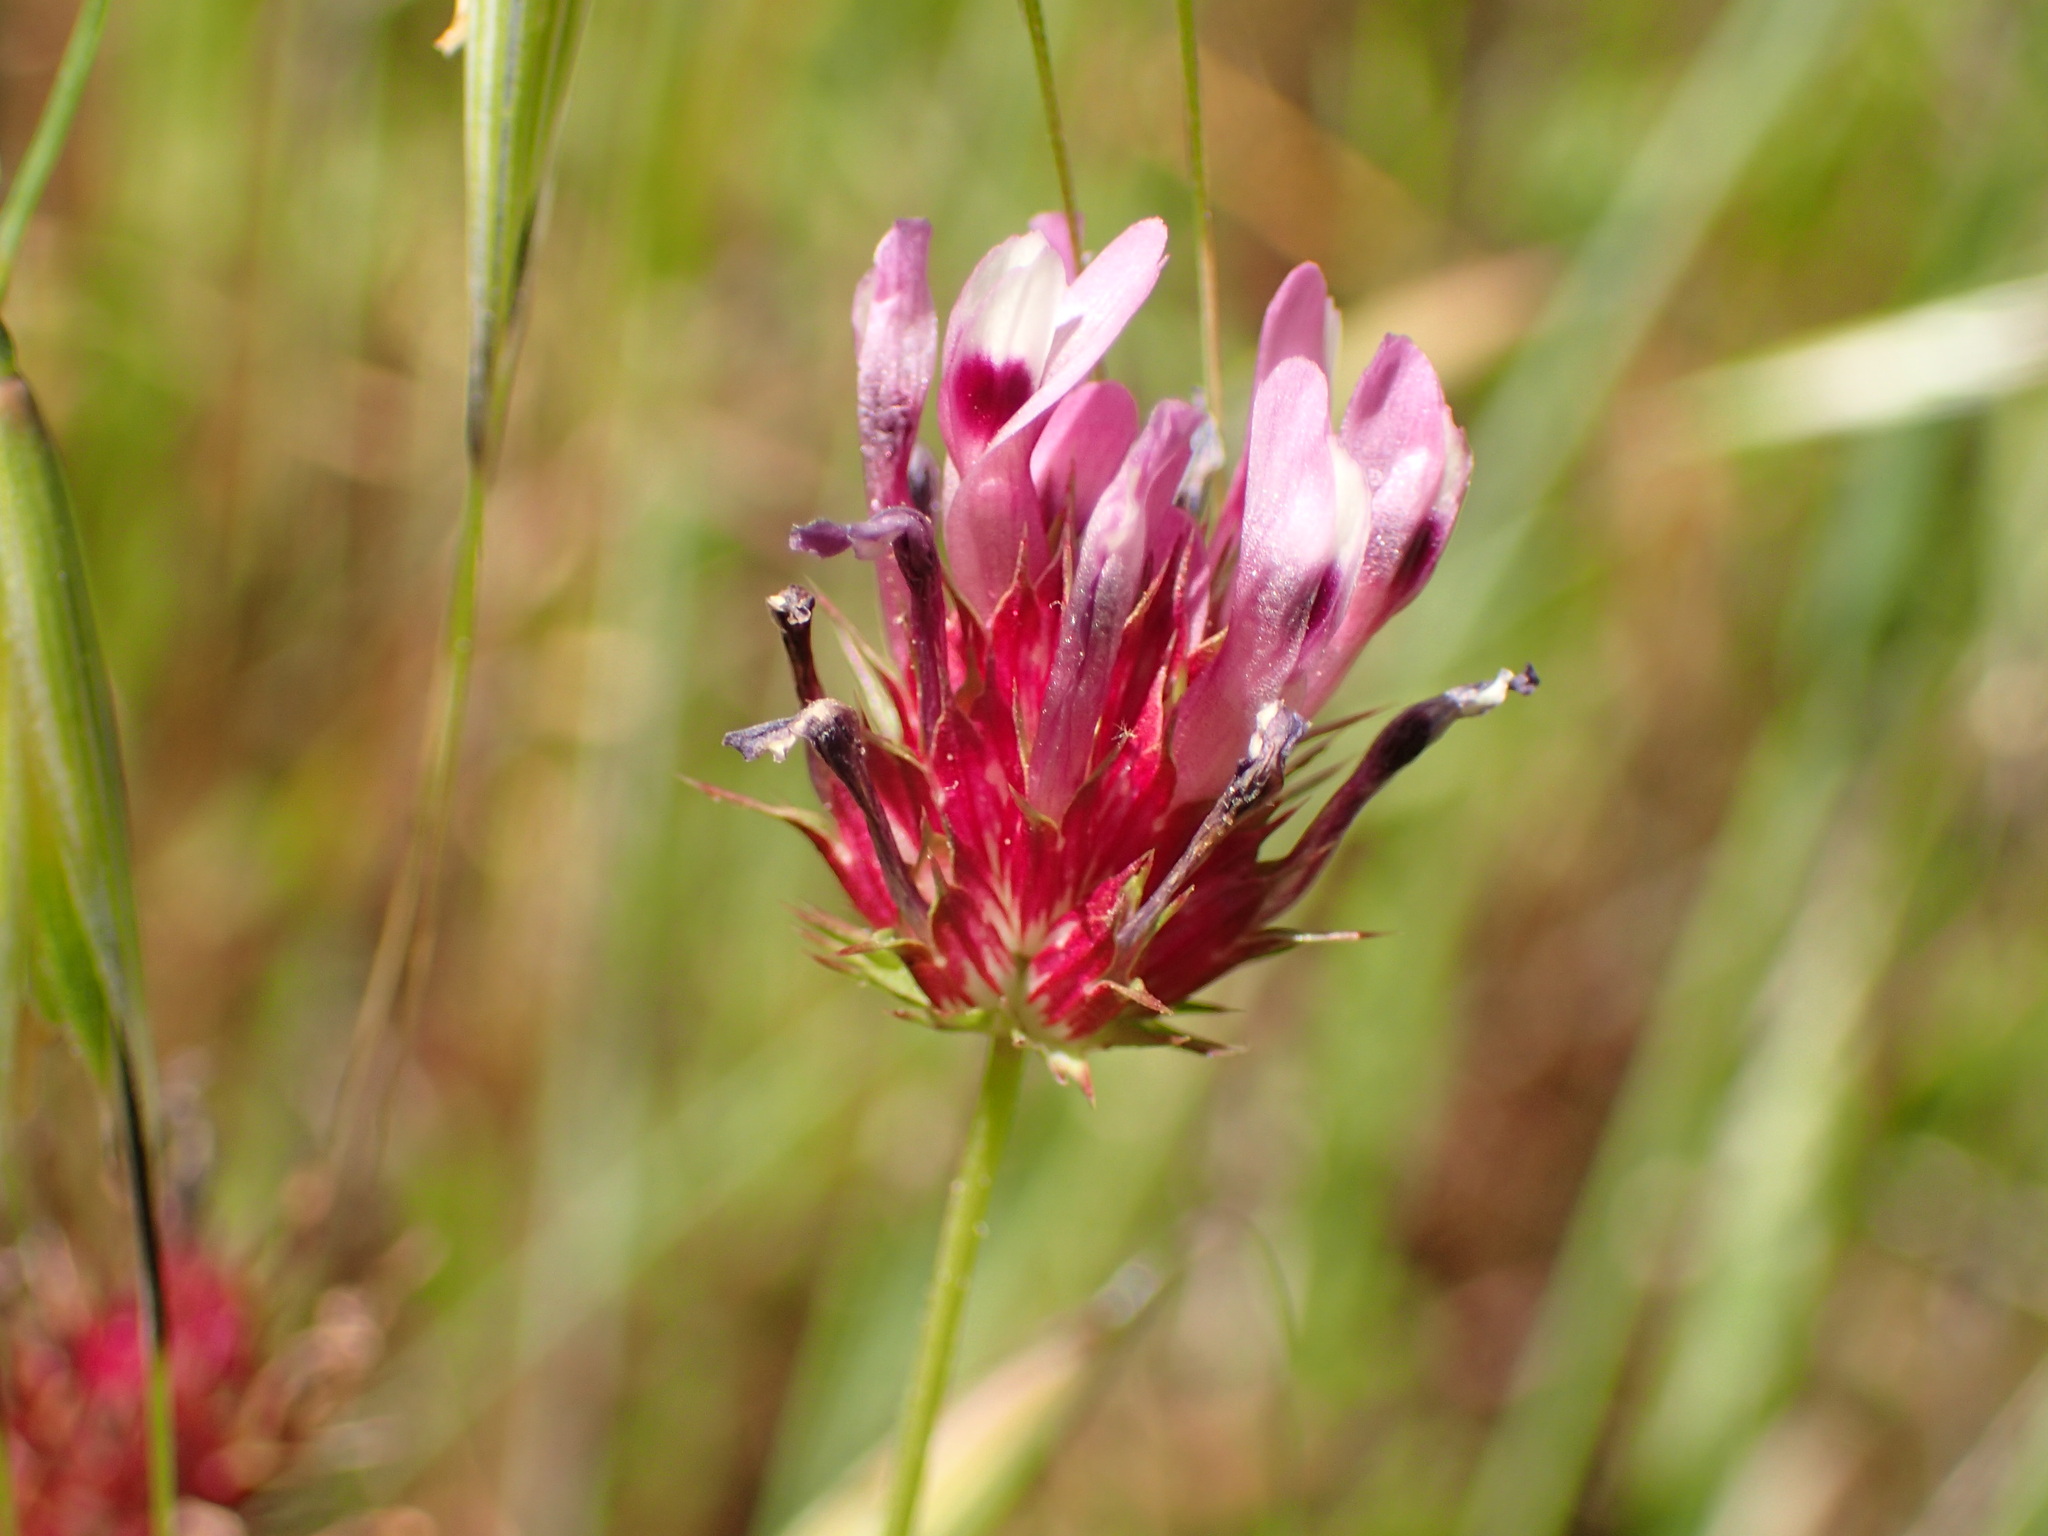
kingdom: Plantae
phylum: Tracheophyta
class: Magnoliopsida
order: Fabales
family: Fabaceae
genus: Trifolium
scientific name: Trifolium willdenovii
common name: Tomcat clover
